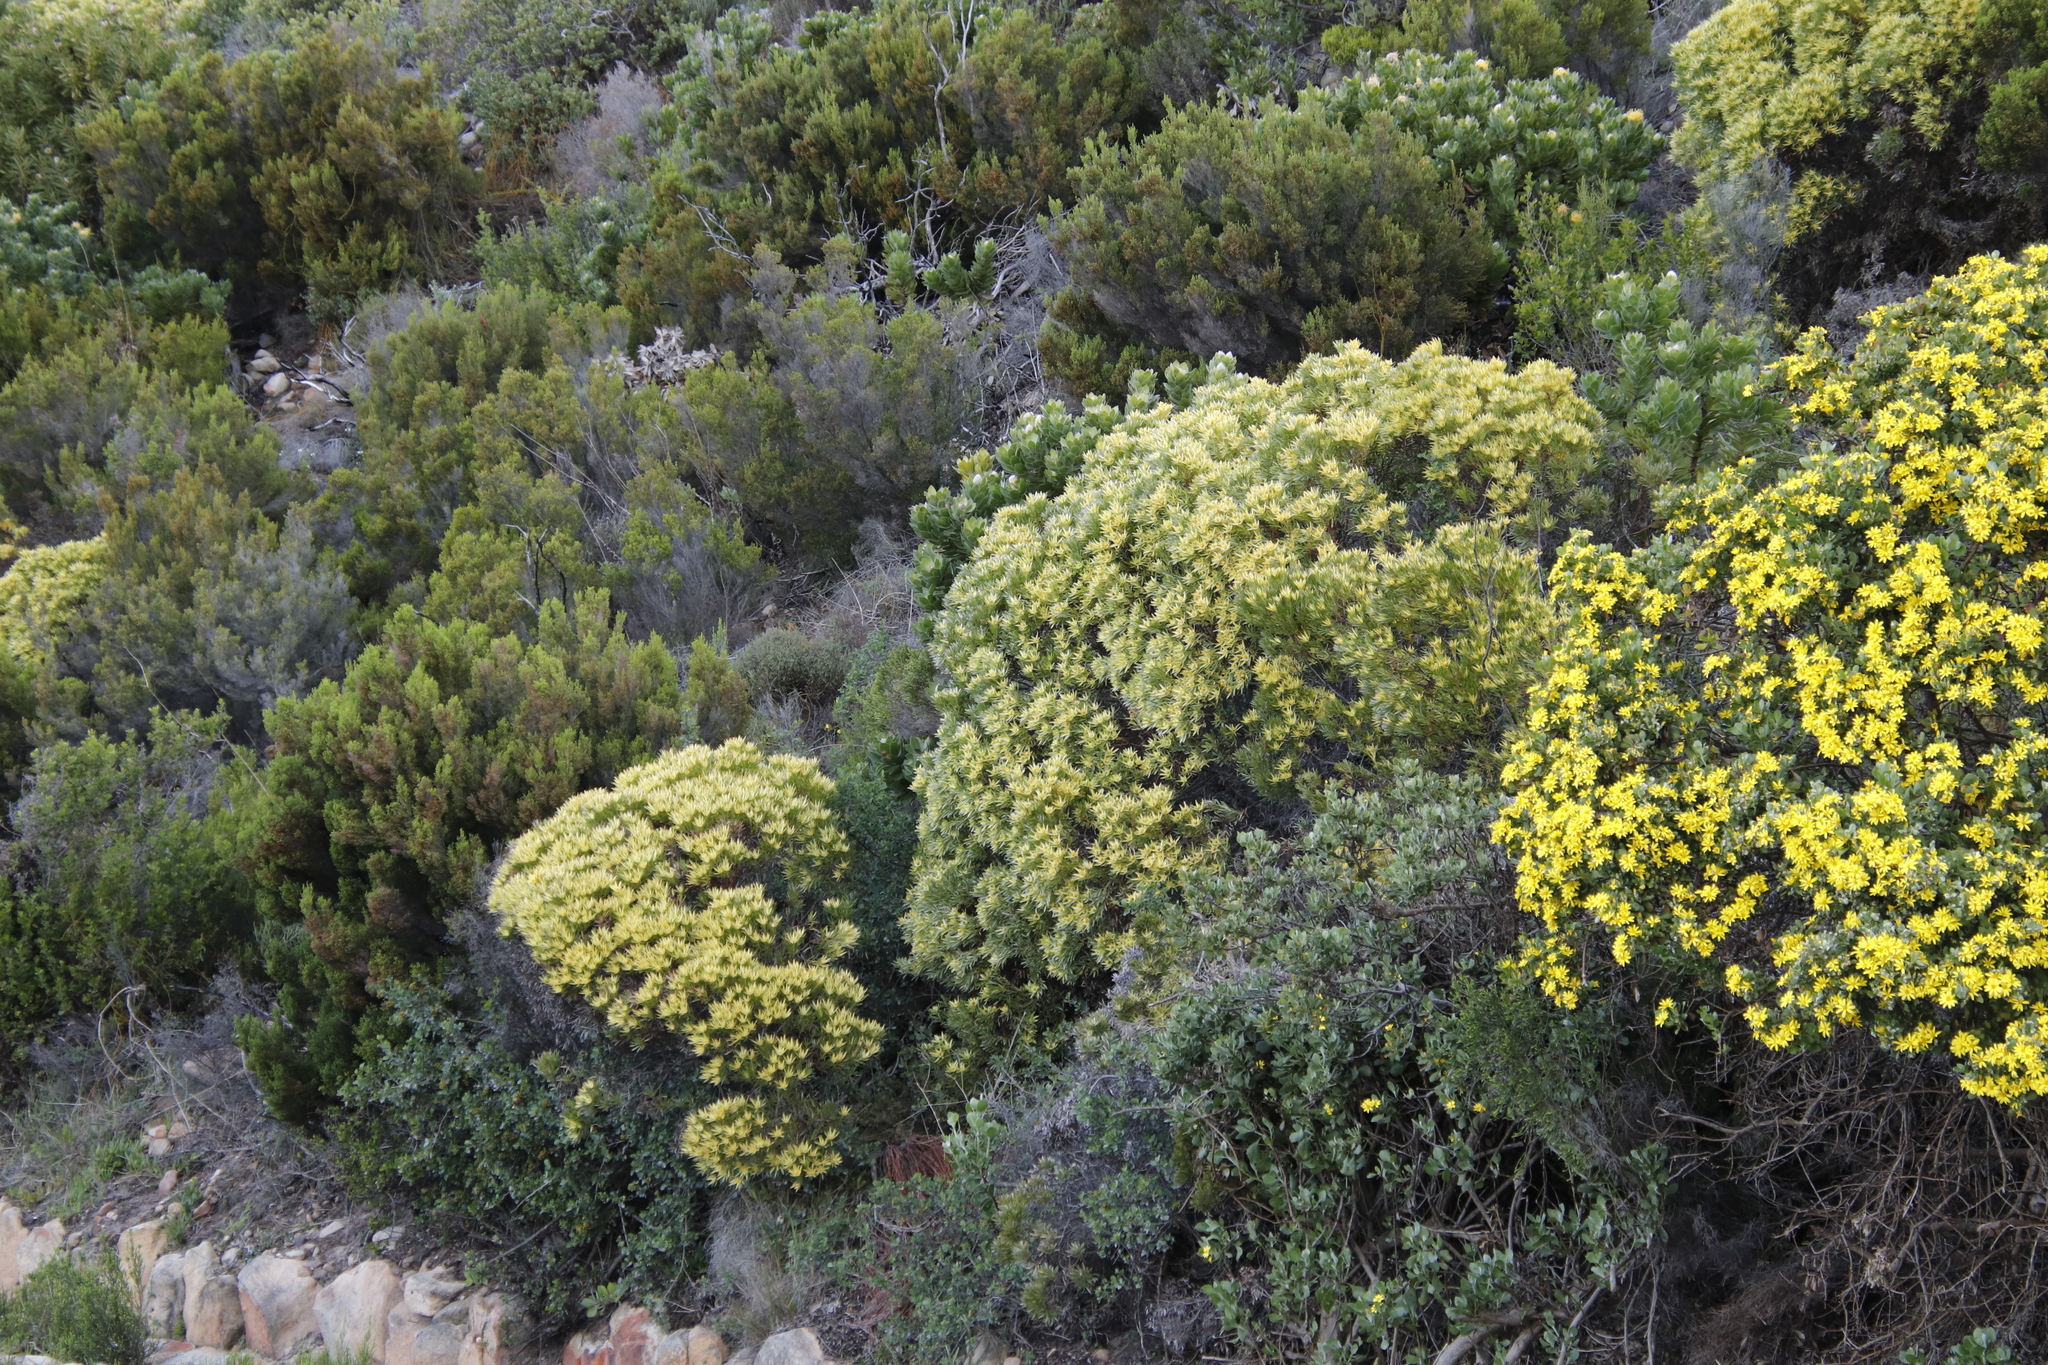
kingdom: Plantae
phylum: Tracheophyta
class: Magnoliopsida
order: Proteales
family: Proteaceae
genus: Leucadendron
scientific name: Leucadendron xanthoconus
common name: Sickle-leaf conebush
